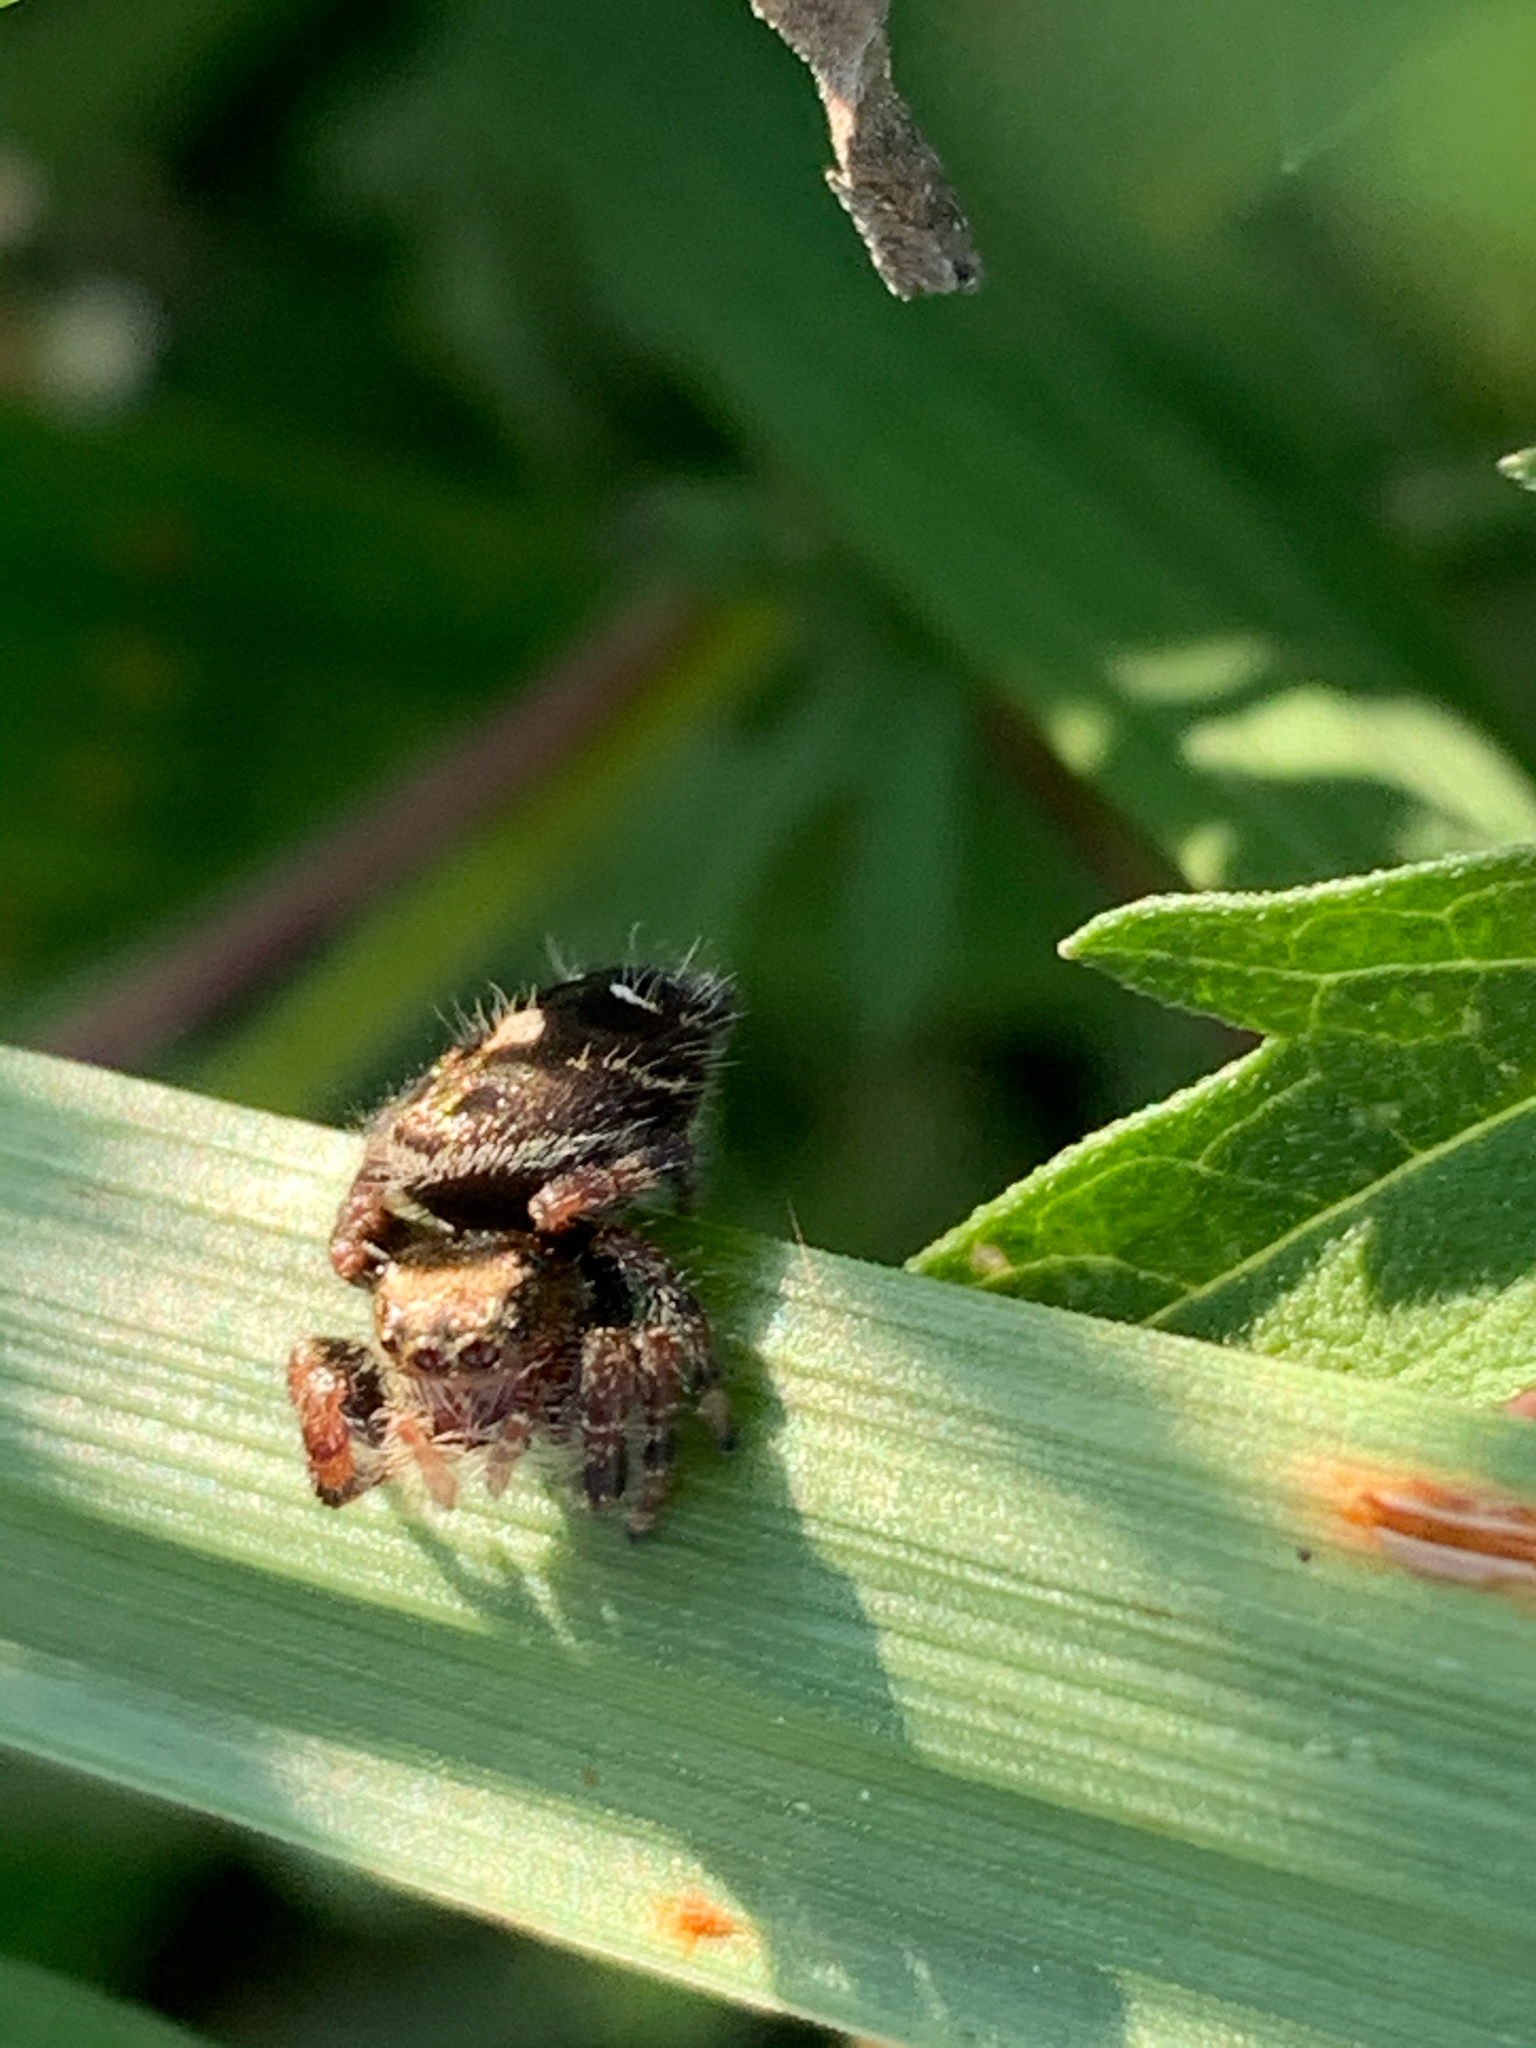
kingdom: Animalia
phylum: Arthropoda
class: Arachnida
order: Araneae
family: Salticidae
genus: Phidippus
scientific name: Phidippus audax
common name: Bold jumper
